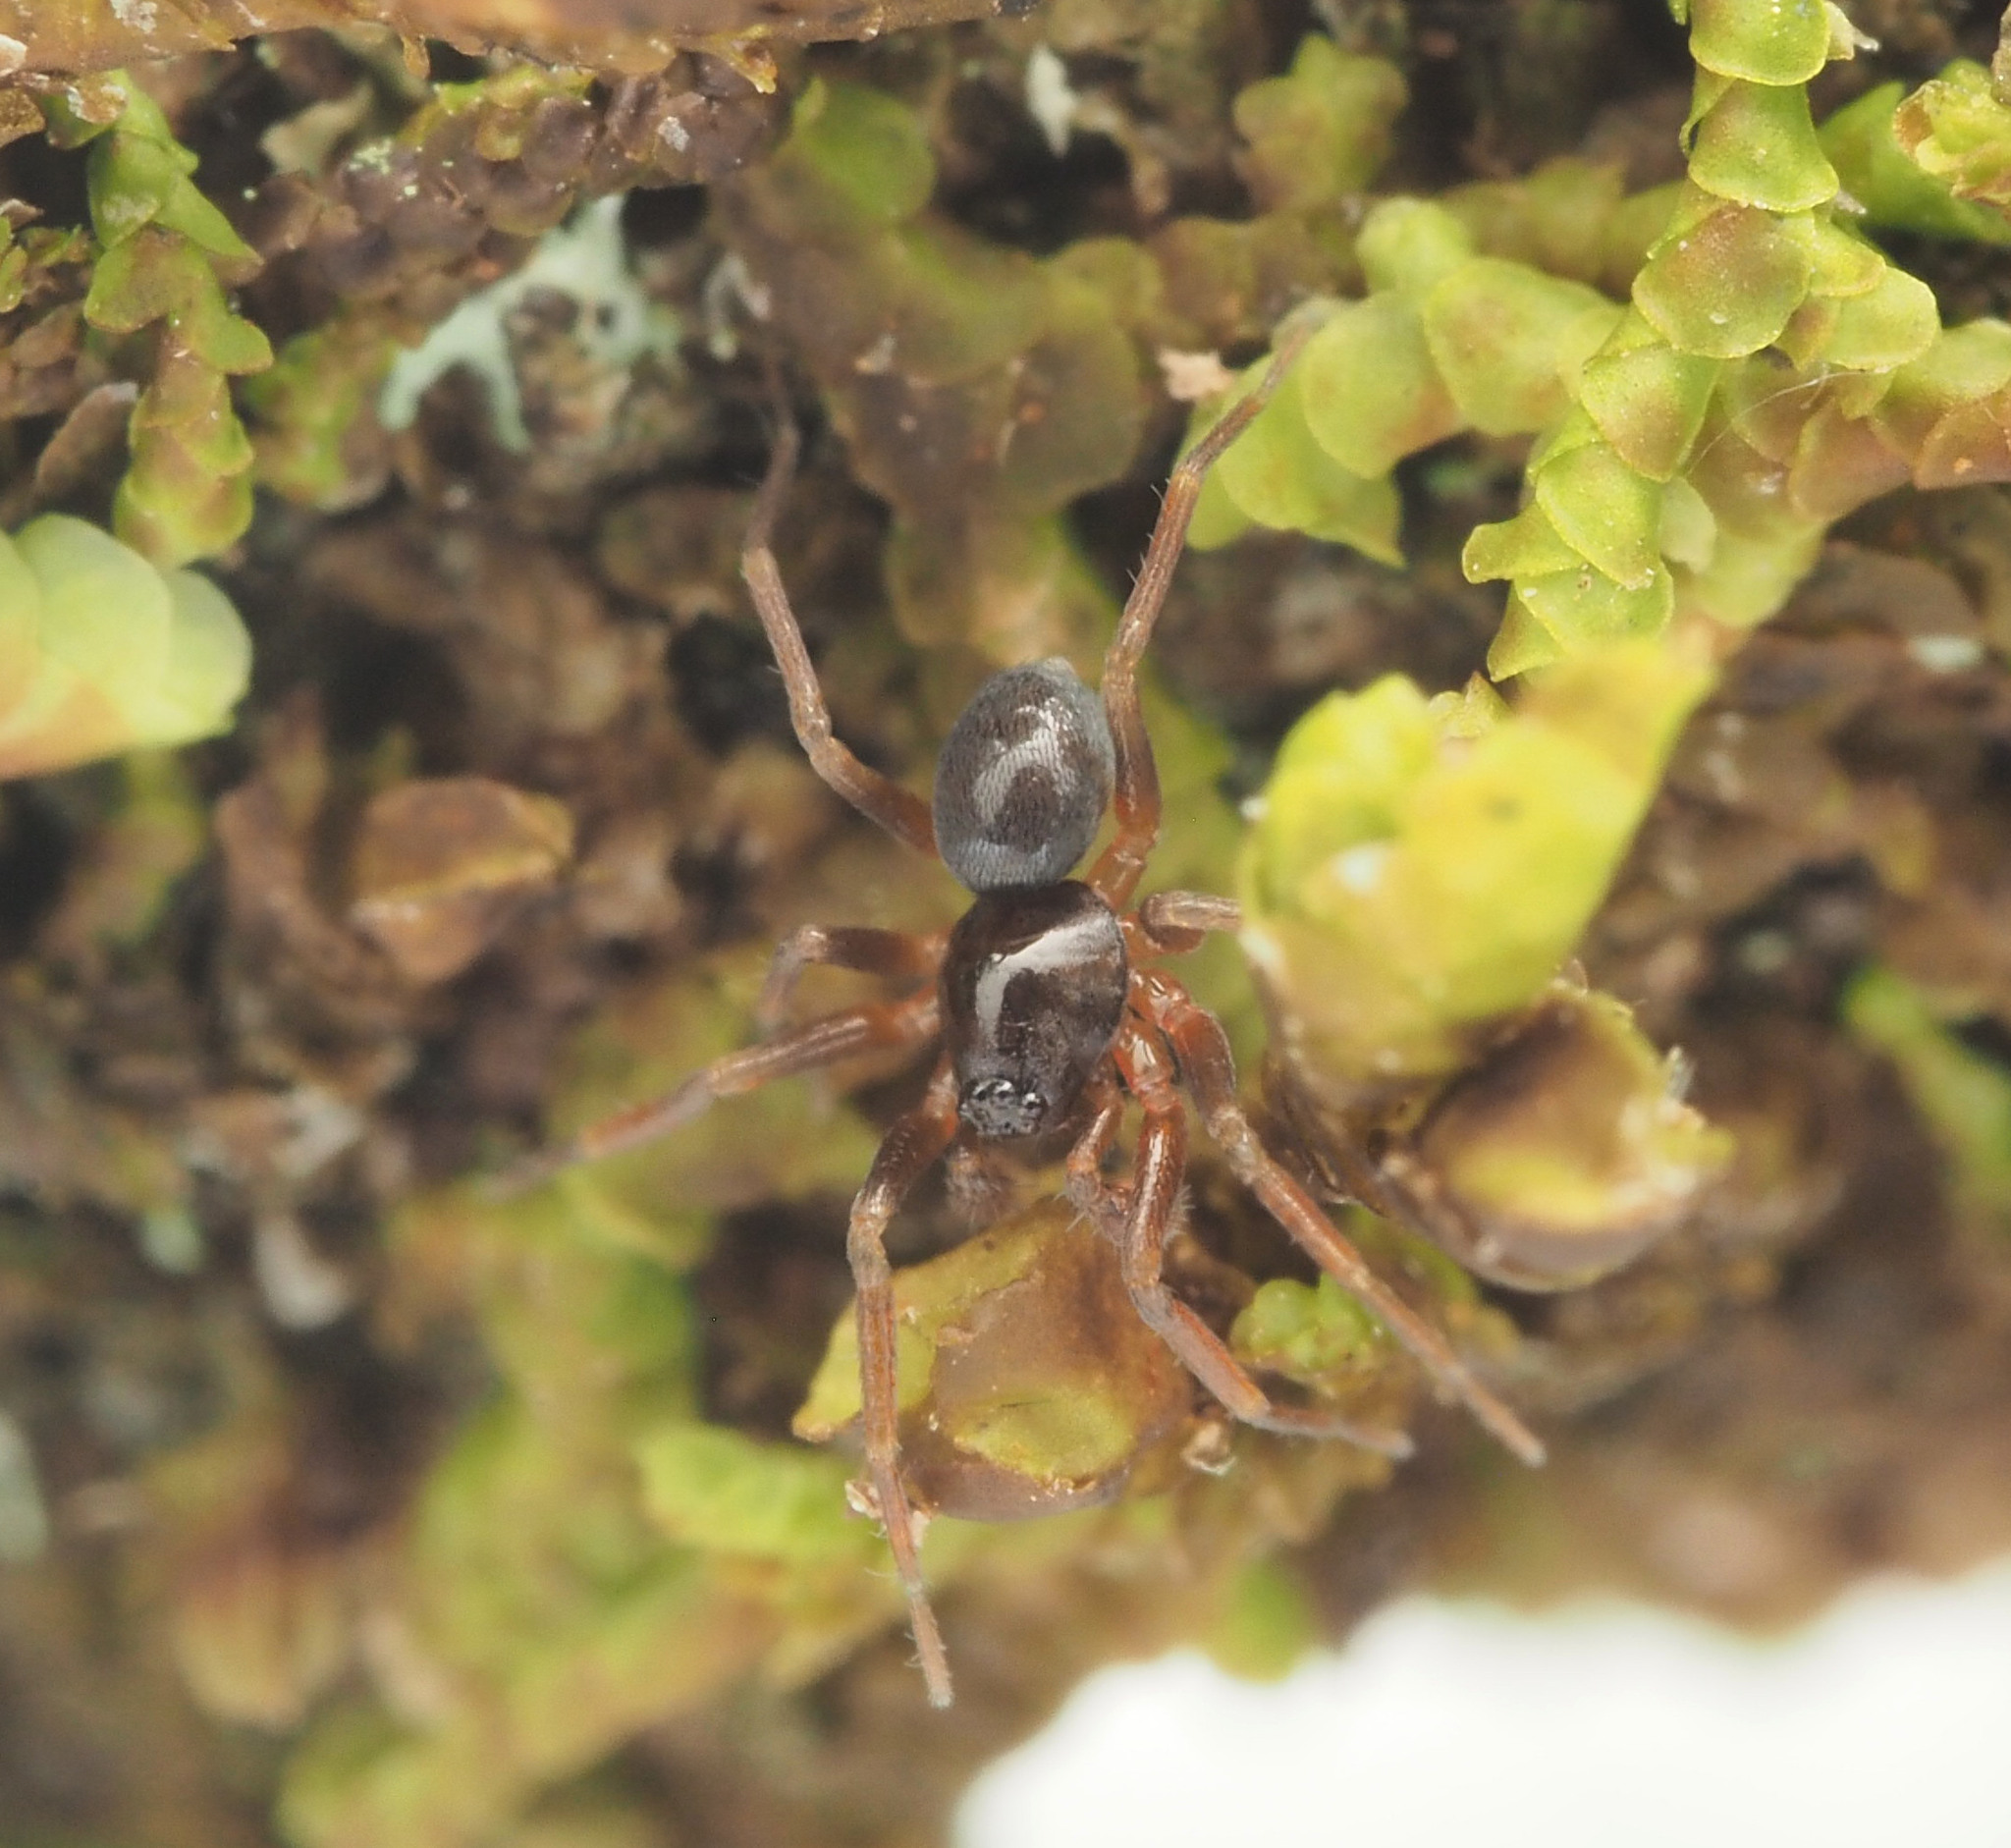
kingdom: Animalia
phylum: Arthropoda
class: Arachnida
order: Araneae
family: Toxopidae
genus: Midgee
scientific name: Midgee
